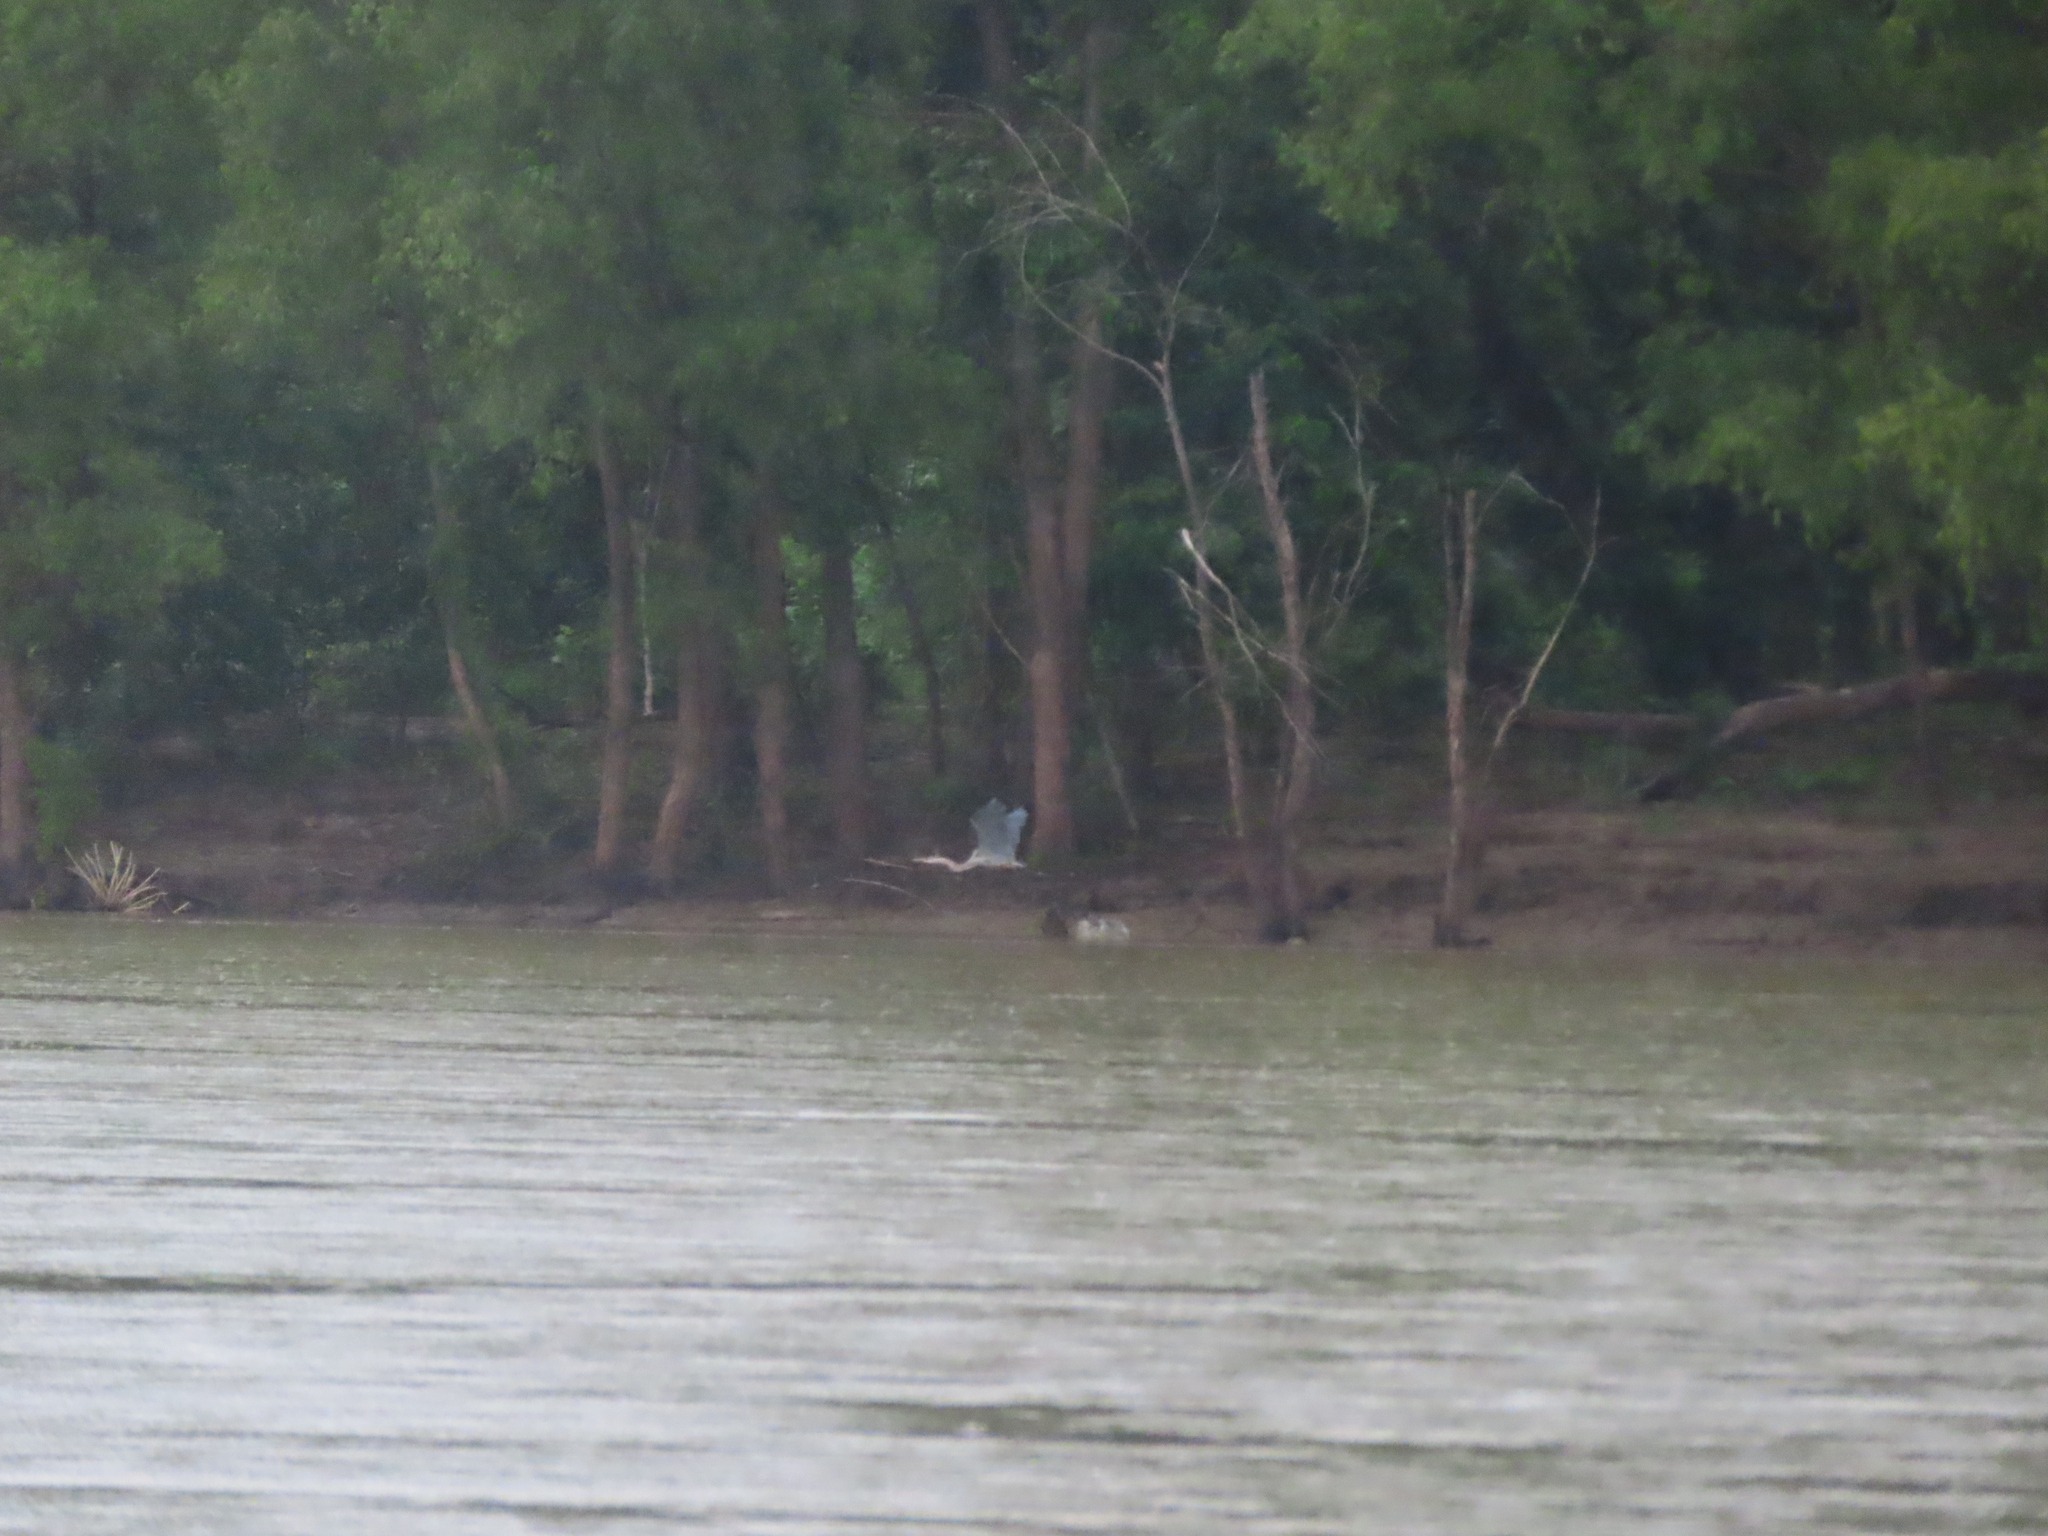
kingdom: Animalia
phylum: Chordata
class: Aves
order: Pelecaniformes
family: Ardeidae
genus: Ardea
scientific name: Ardea herodias
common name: Great blue heron
